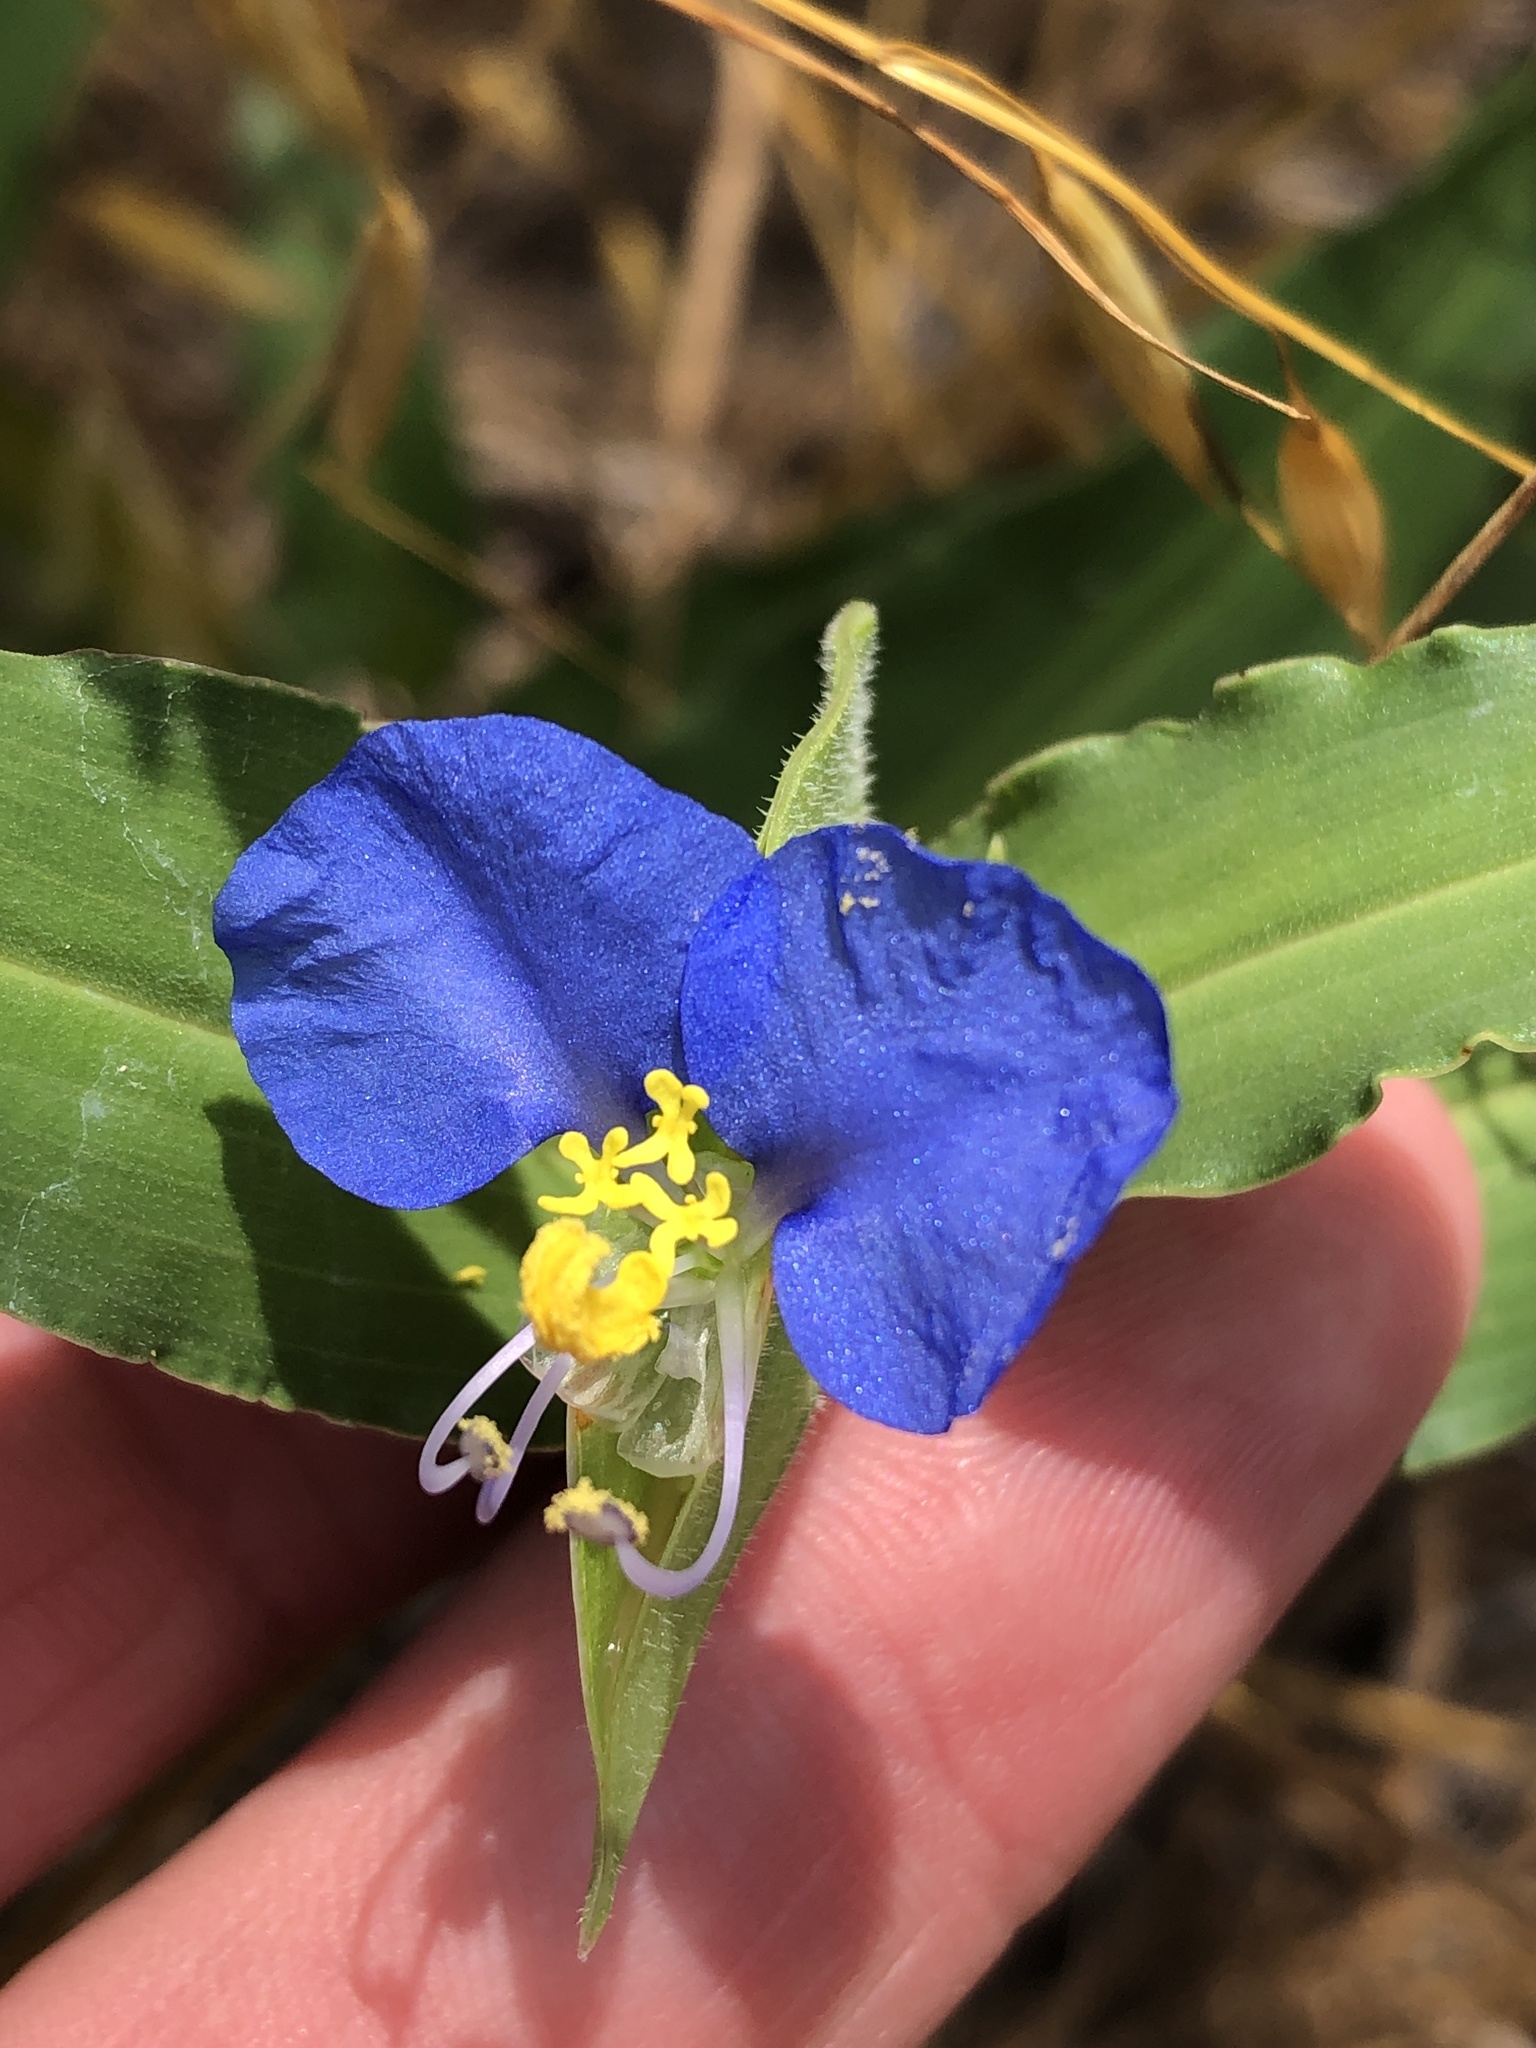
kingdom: Plantae
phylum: Tracheophyta
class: Liliopsida
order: Commelinales
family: Commelinaceae
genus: Commelina
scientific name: Commelina erecta
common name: Blousel blommetjie
